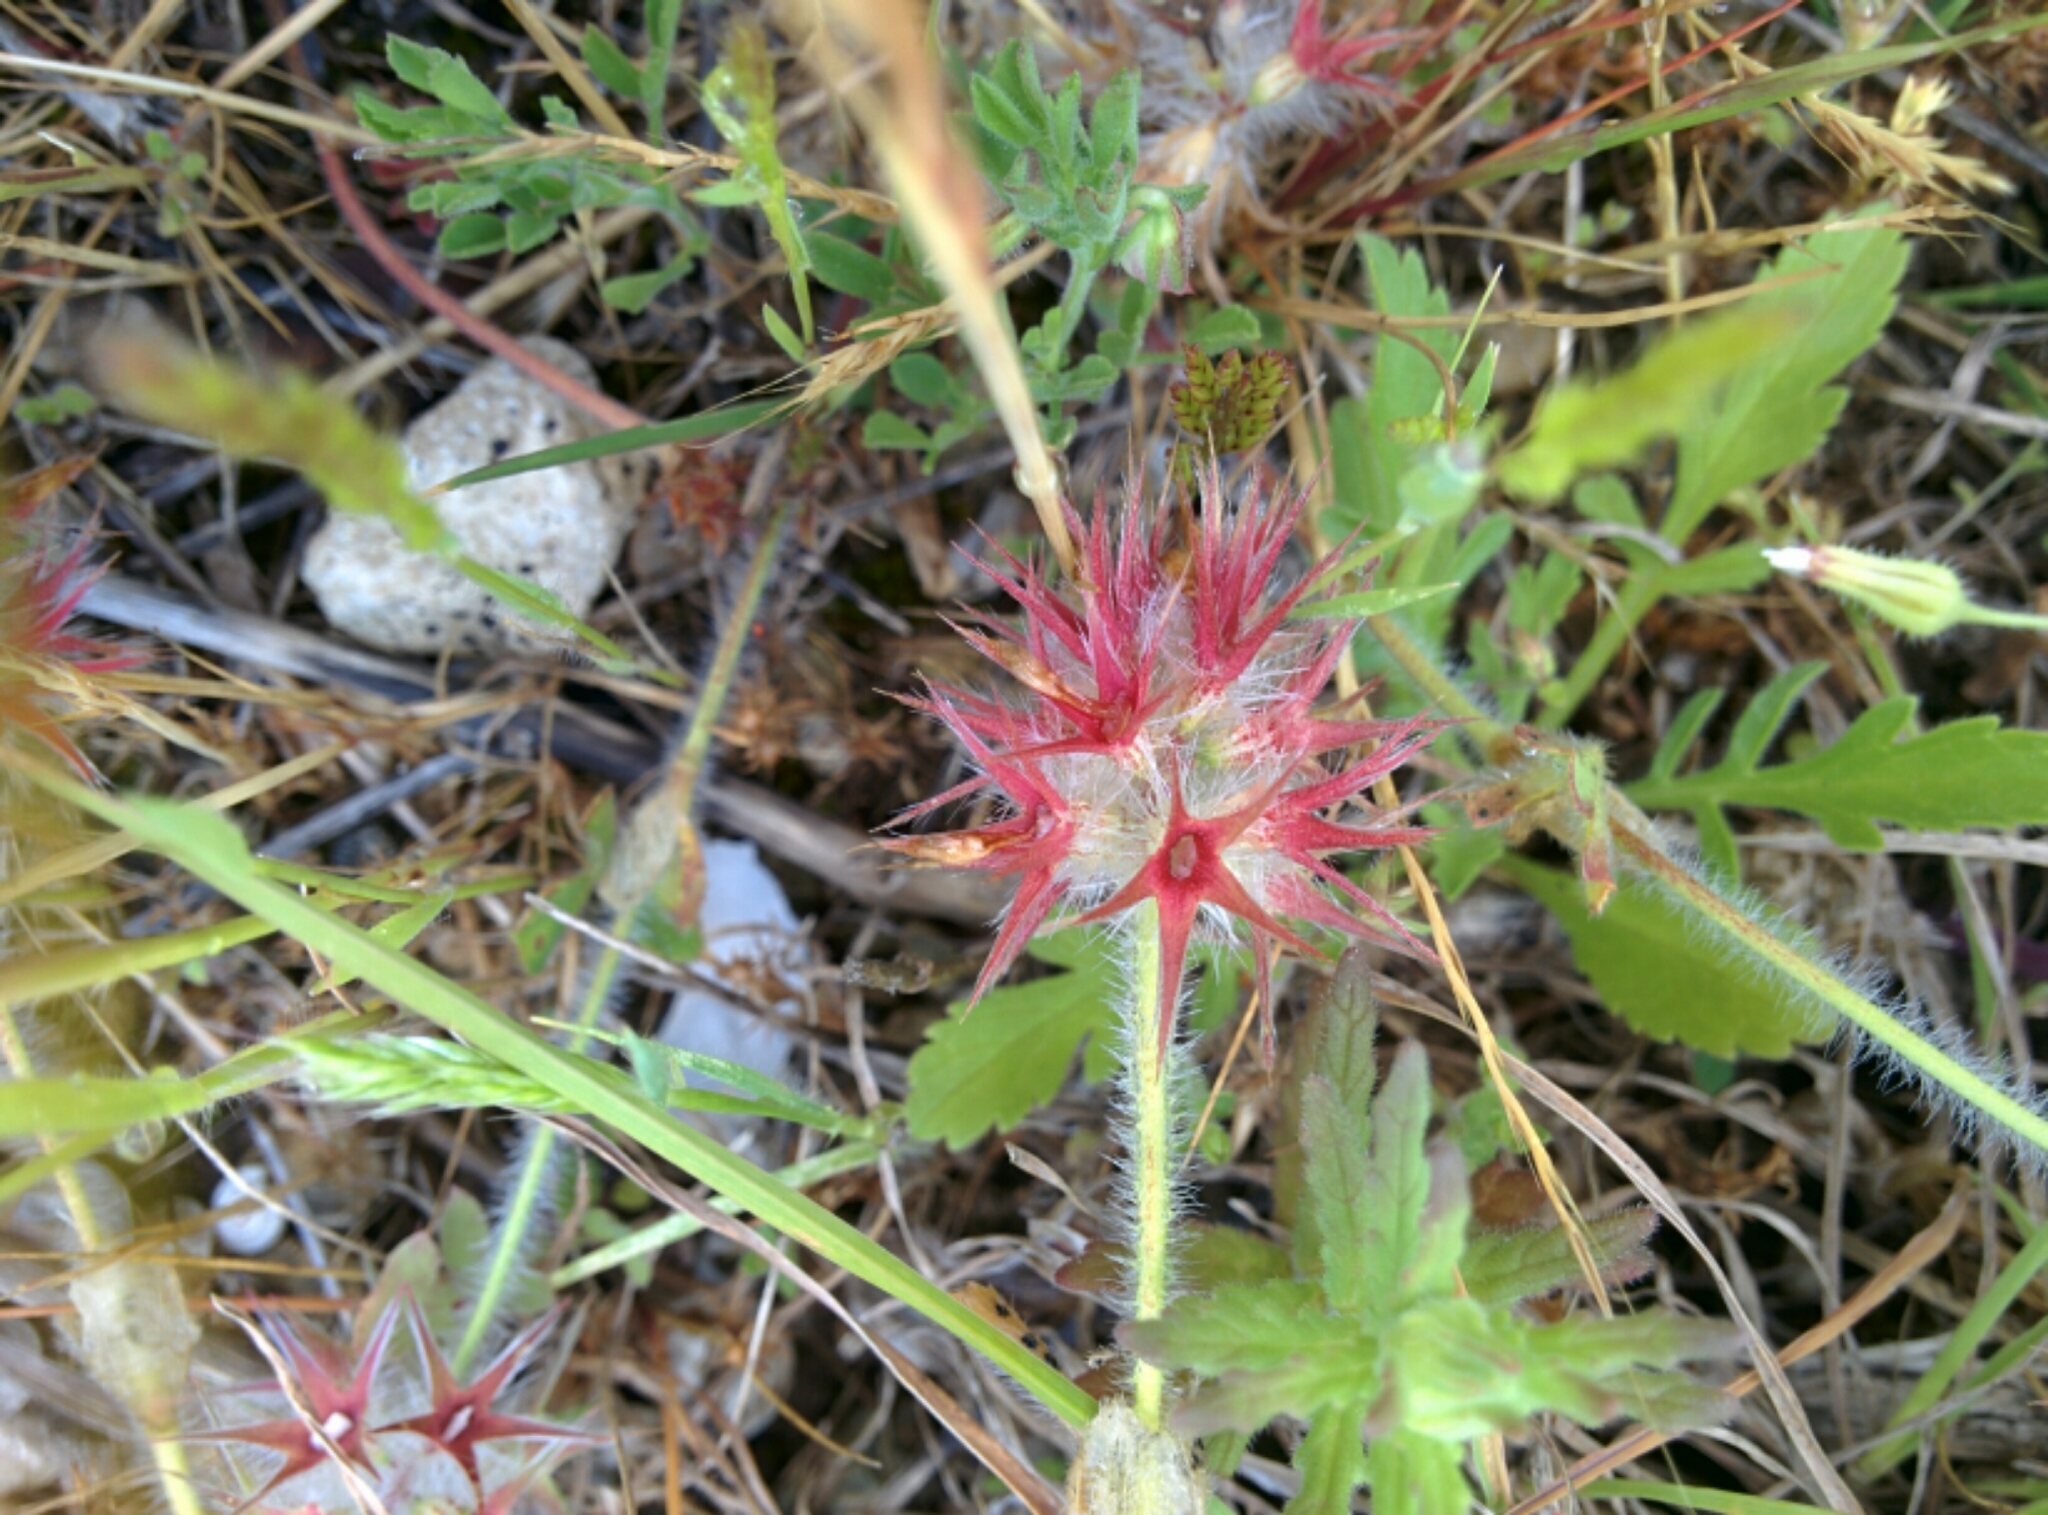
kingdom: Plantae
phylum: Tracheophyta
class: Magnoliopsida
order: Fabales
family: Fabaceae
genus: Trifolium
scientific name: Trifolium stellatum
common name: Starry clover
